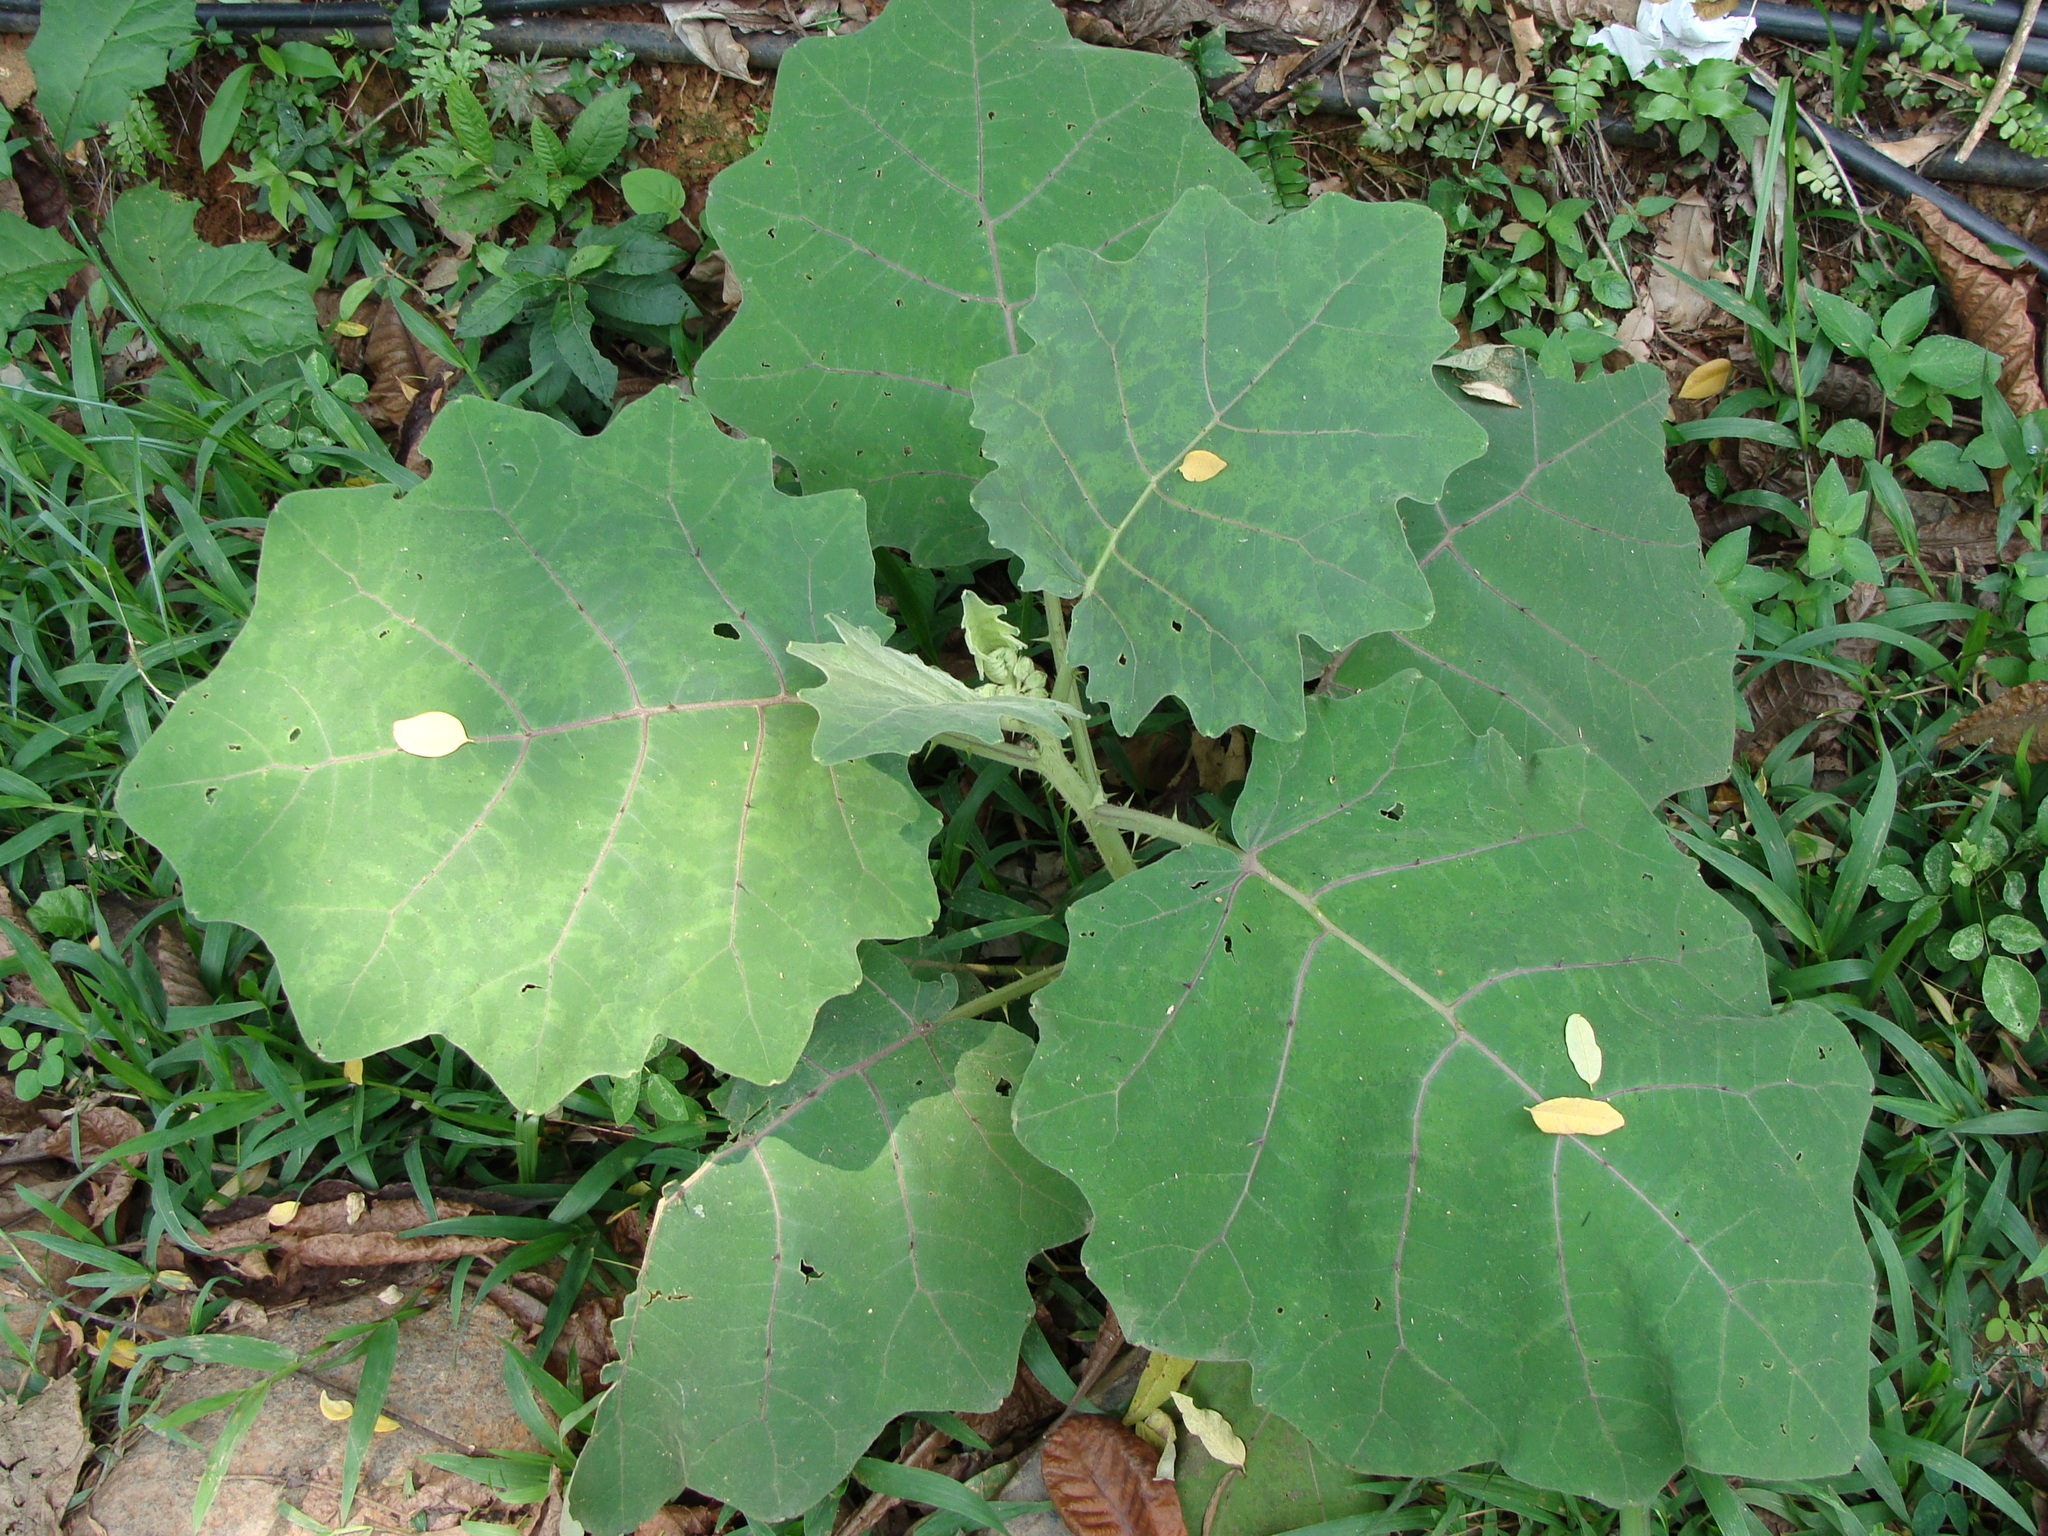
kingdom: Plantae
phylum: Tracheophyta
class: Magnoliopsida
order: Solanales
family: Solanaceae
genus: Solanum
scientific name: Solanum hirtum
